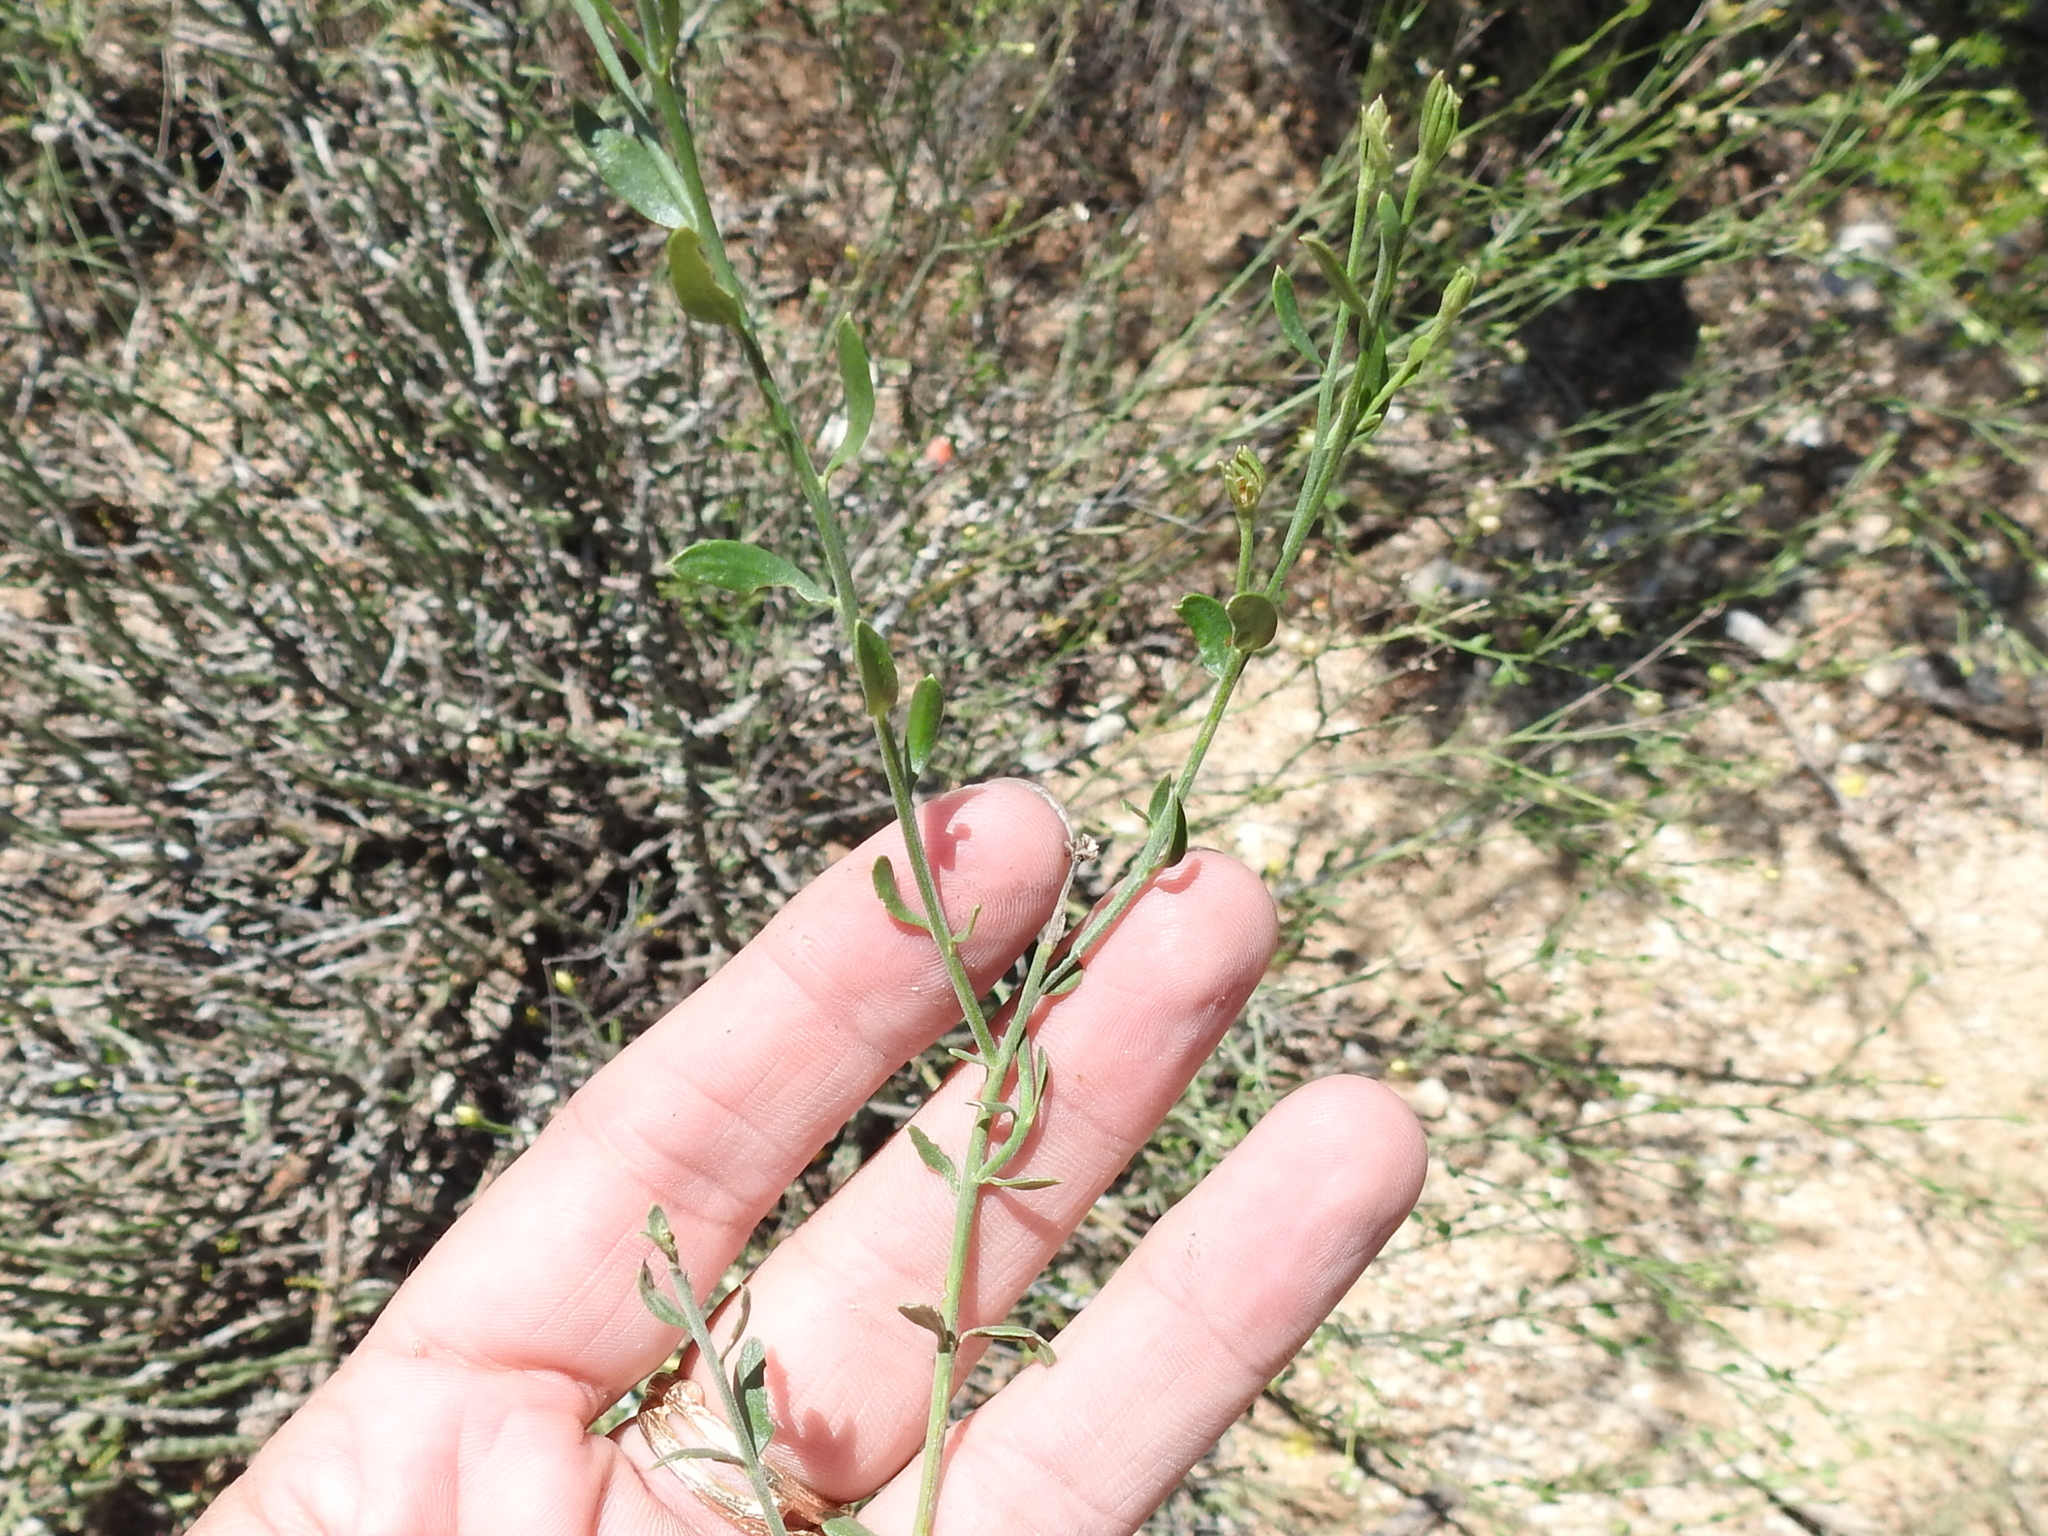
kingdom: Plantae
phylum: Tracheophyta
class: Magnoliopsida
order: Lamiales
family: Oleaceae
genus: Menodora
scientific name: Menodora scabra
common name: Rough menodora
